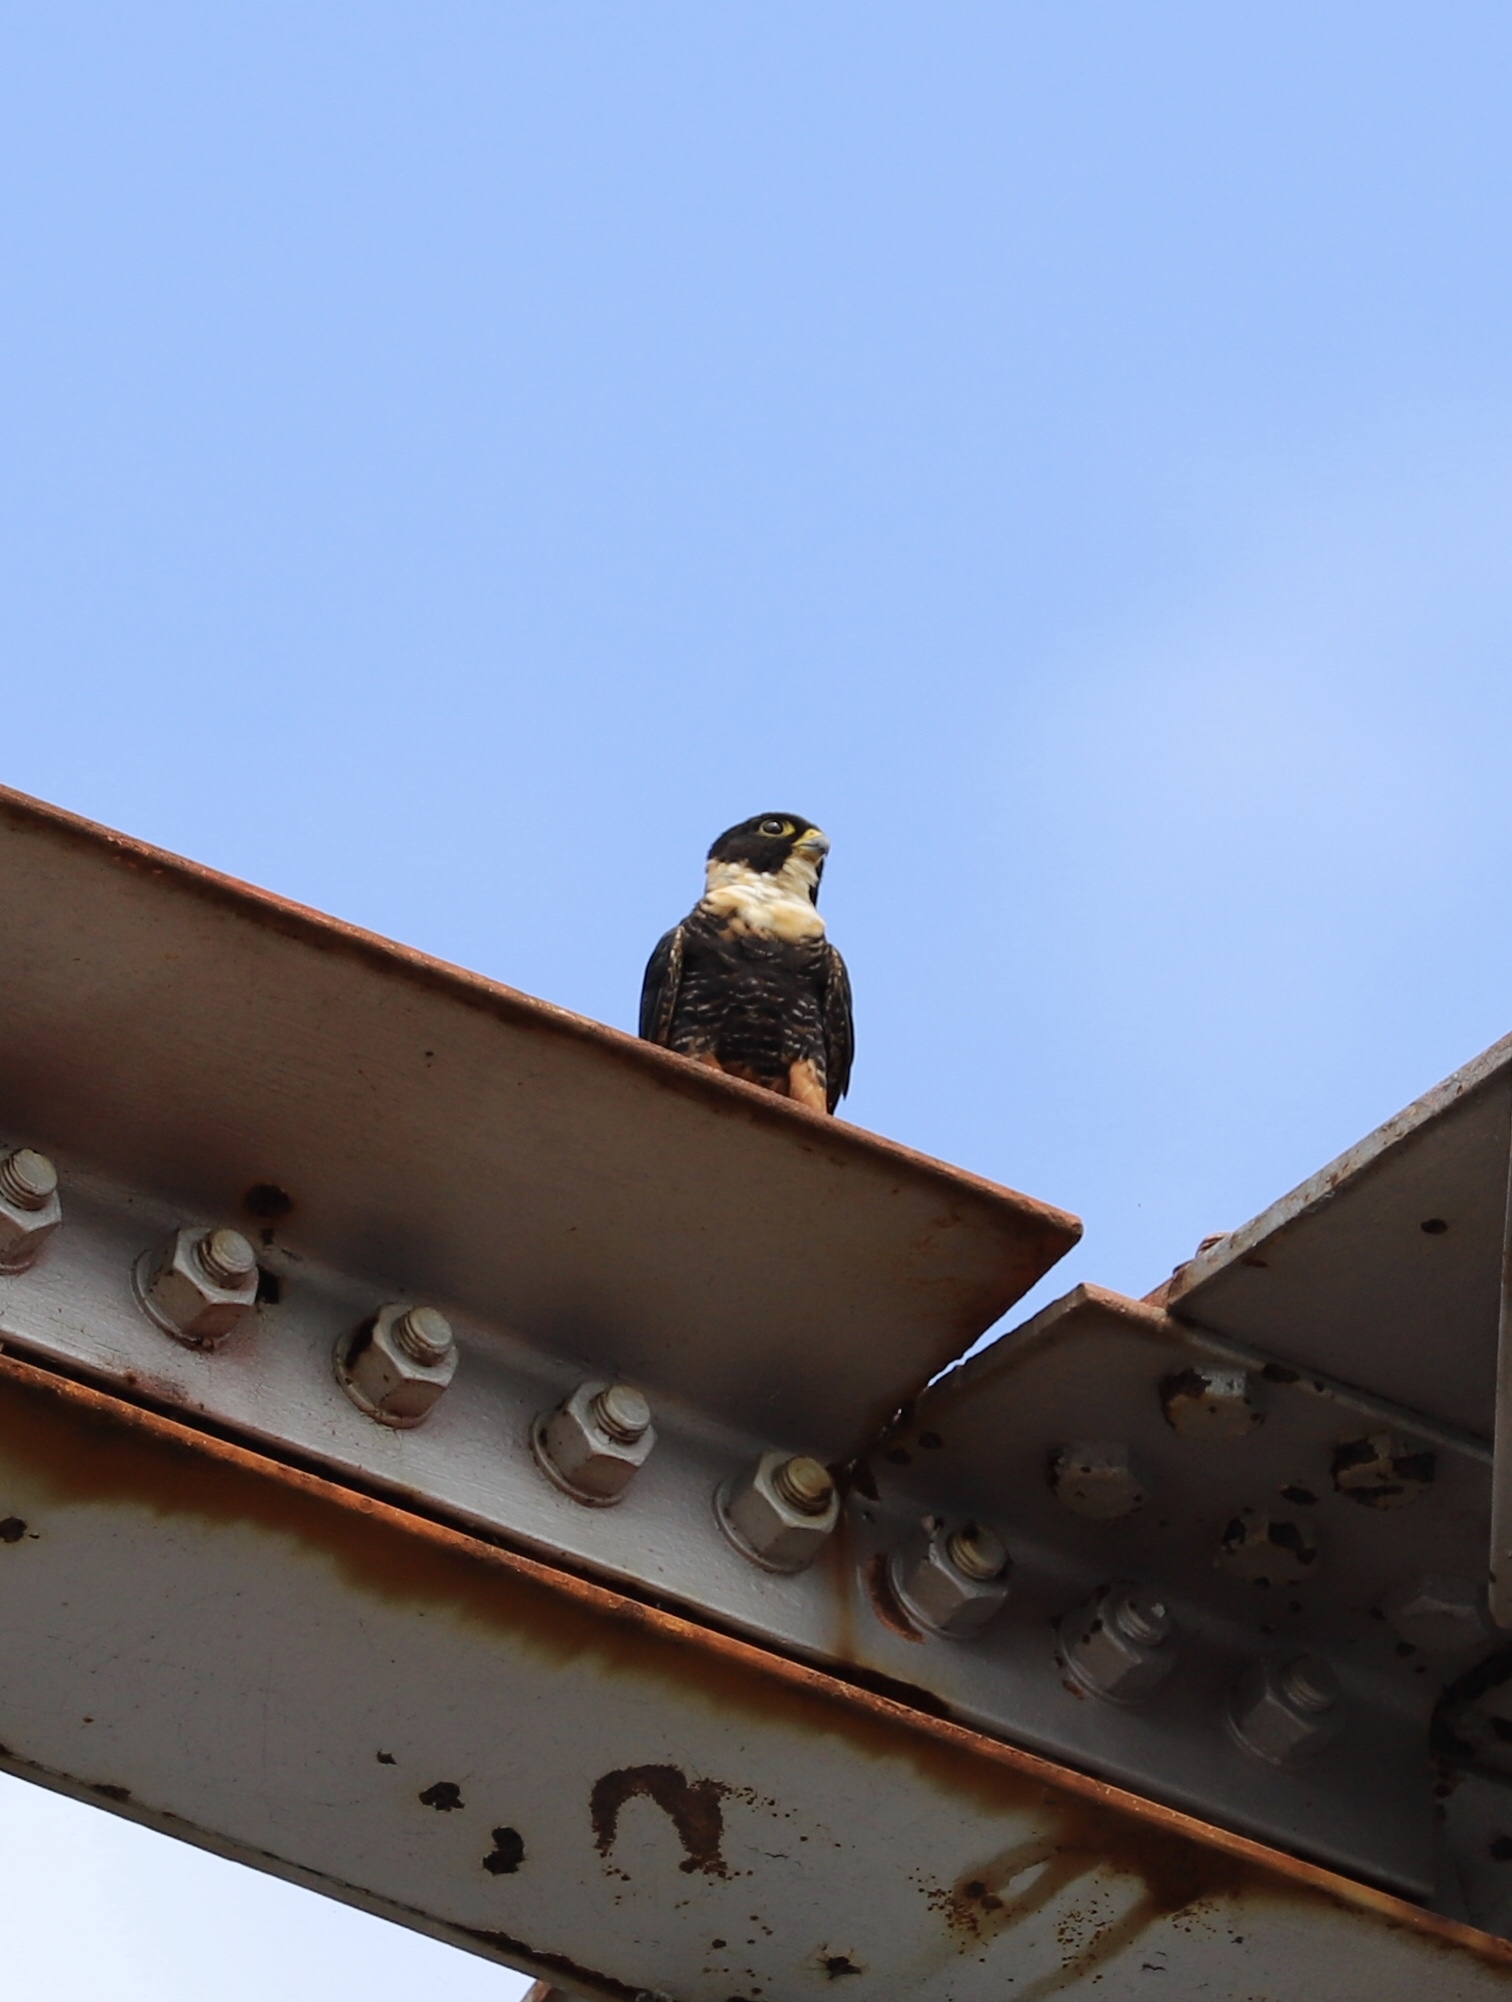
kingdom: Animalia
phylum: Chordata
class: Aves
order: Falconiformes
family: Falconidae
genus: Falco
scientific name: Falco rufigularis
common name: Bat falcon
